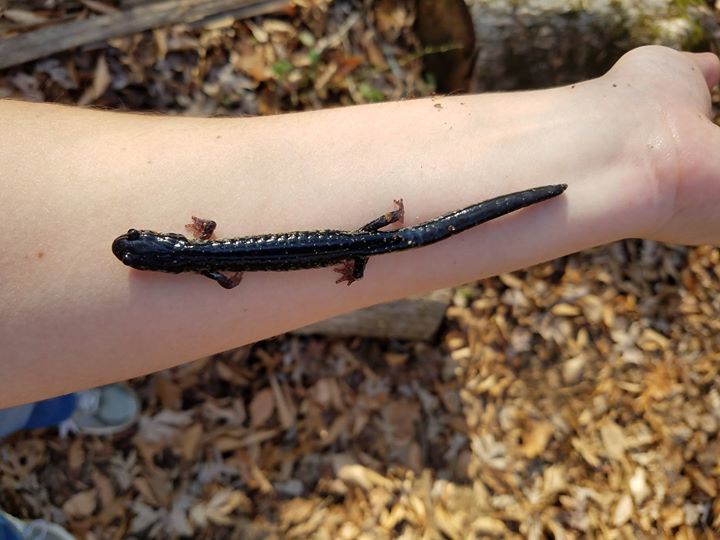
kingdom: Animalia
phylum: Chordata
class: Amphibia
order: Caudata
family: Plethodontidae
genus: Plethodon
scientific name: Plethodon glutinosus
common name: Northern slimy salamander
